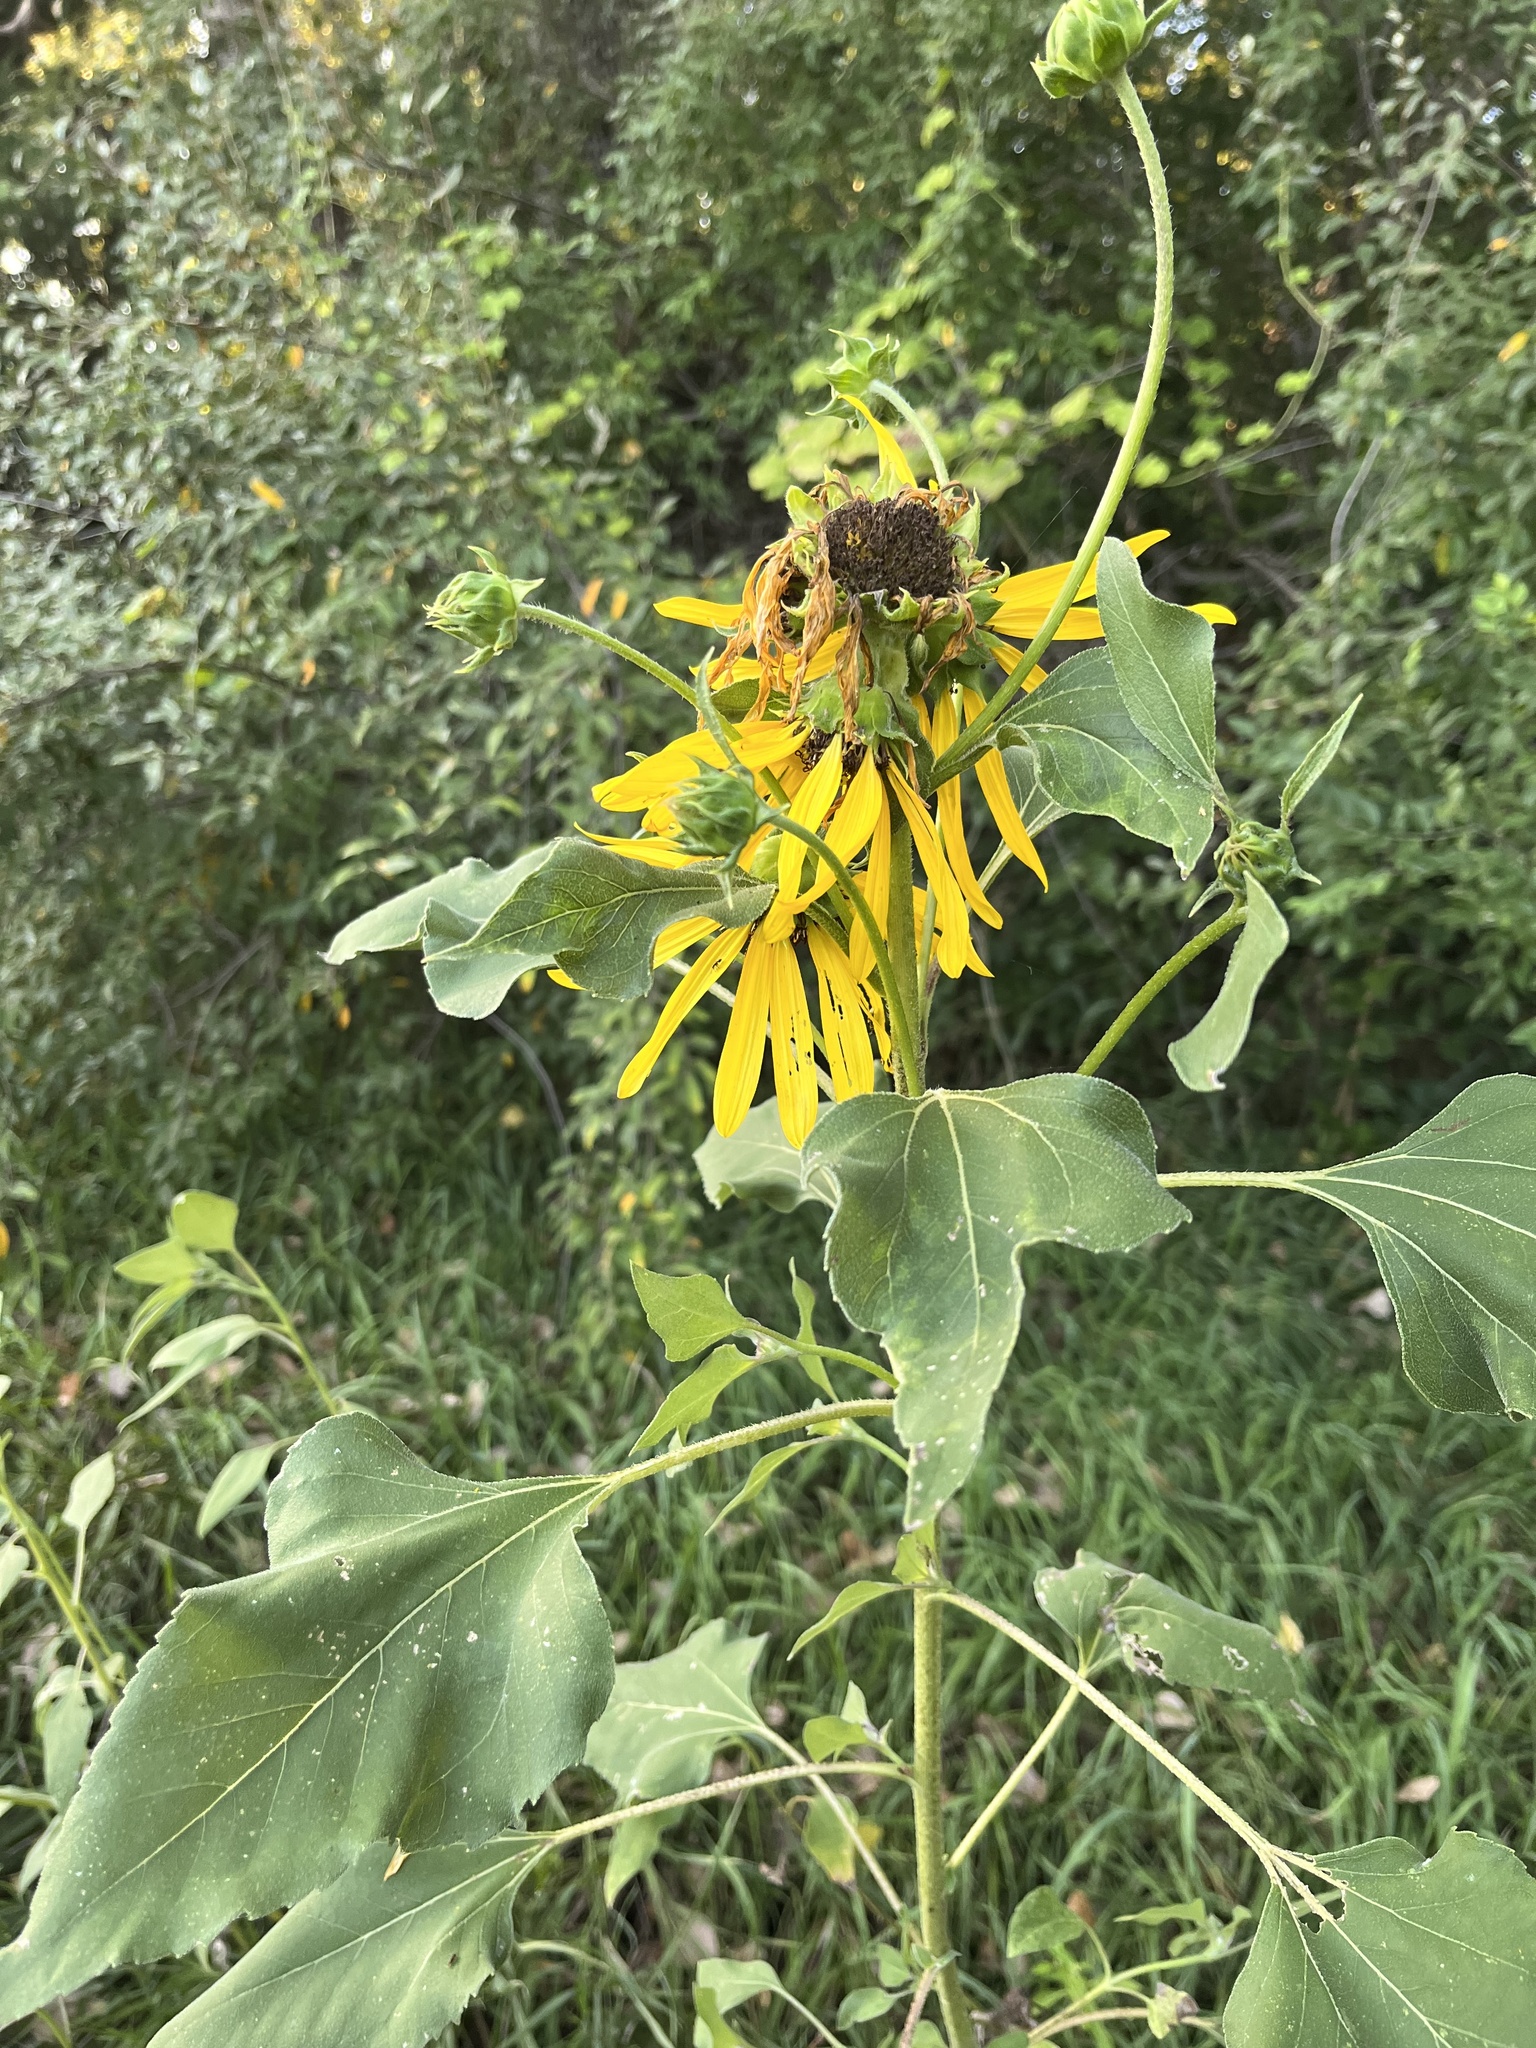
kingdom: Plantae
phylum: Tracheophyta
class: Magnoliopsida
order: Asterales
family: Asteraceae
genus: Helianthus
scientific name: Helianthus annuus
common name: Sunflower
